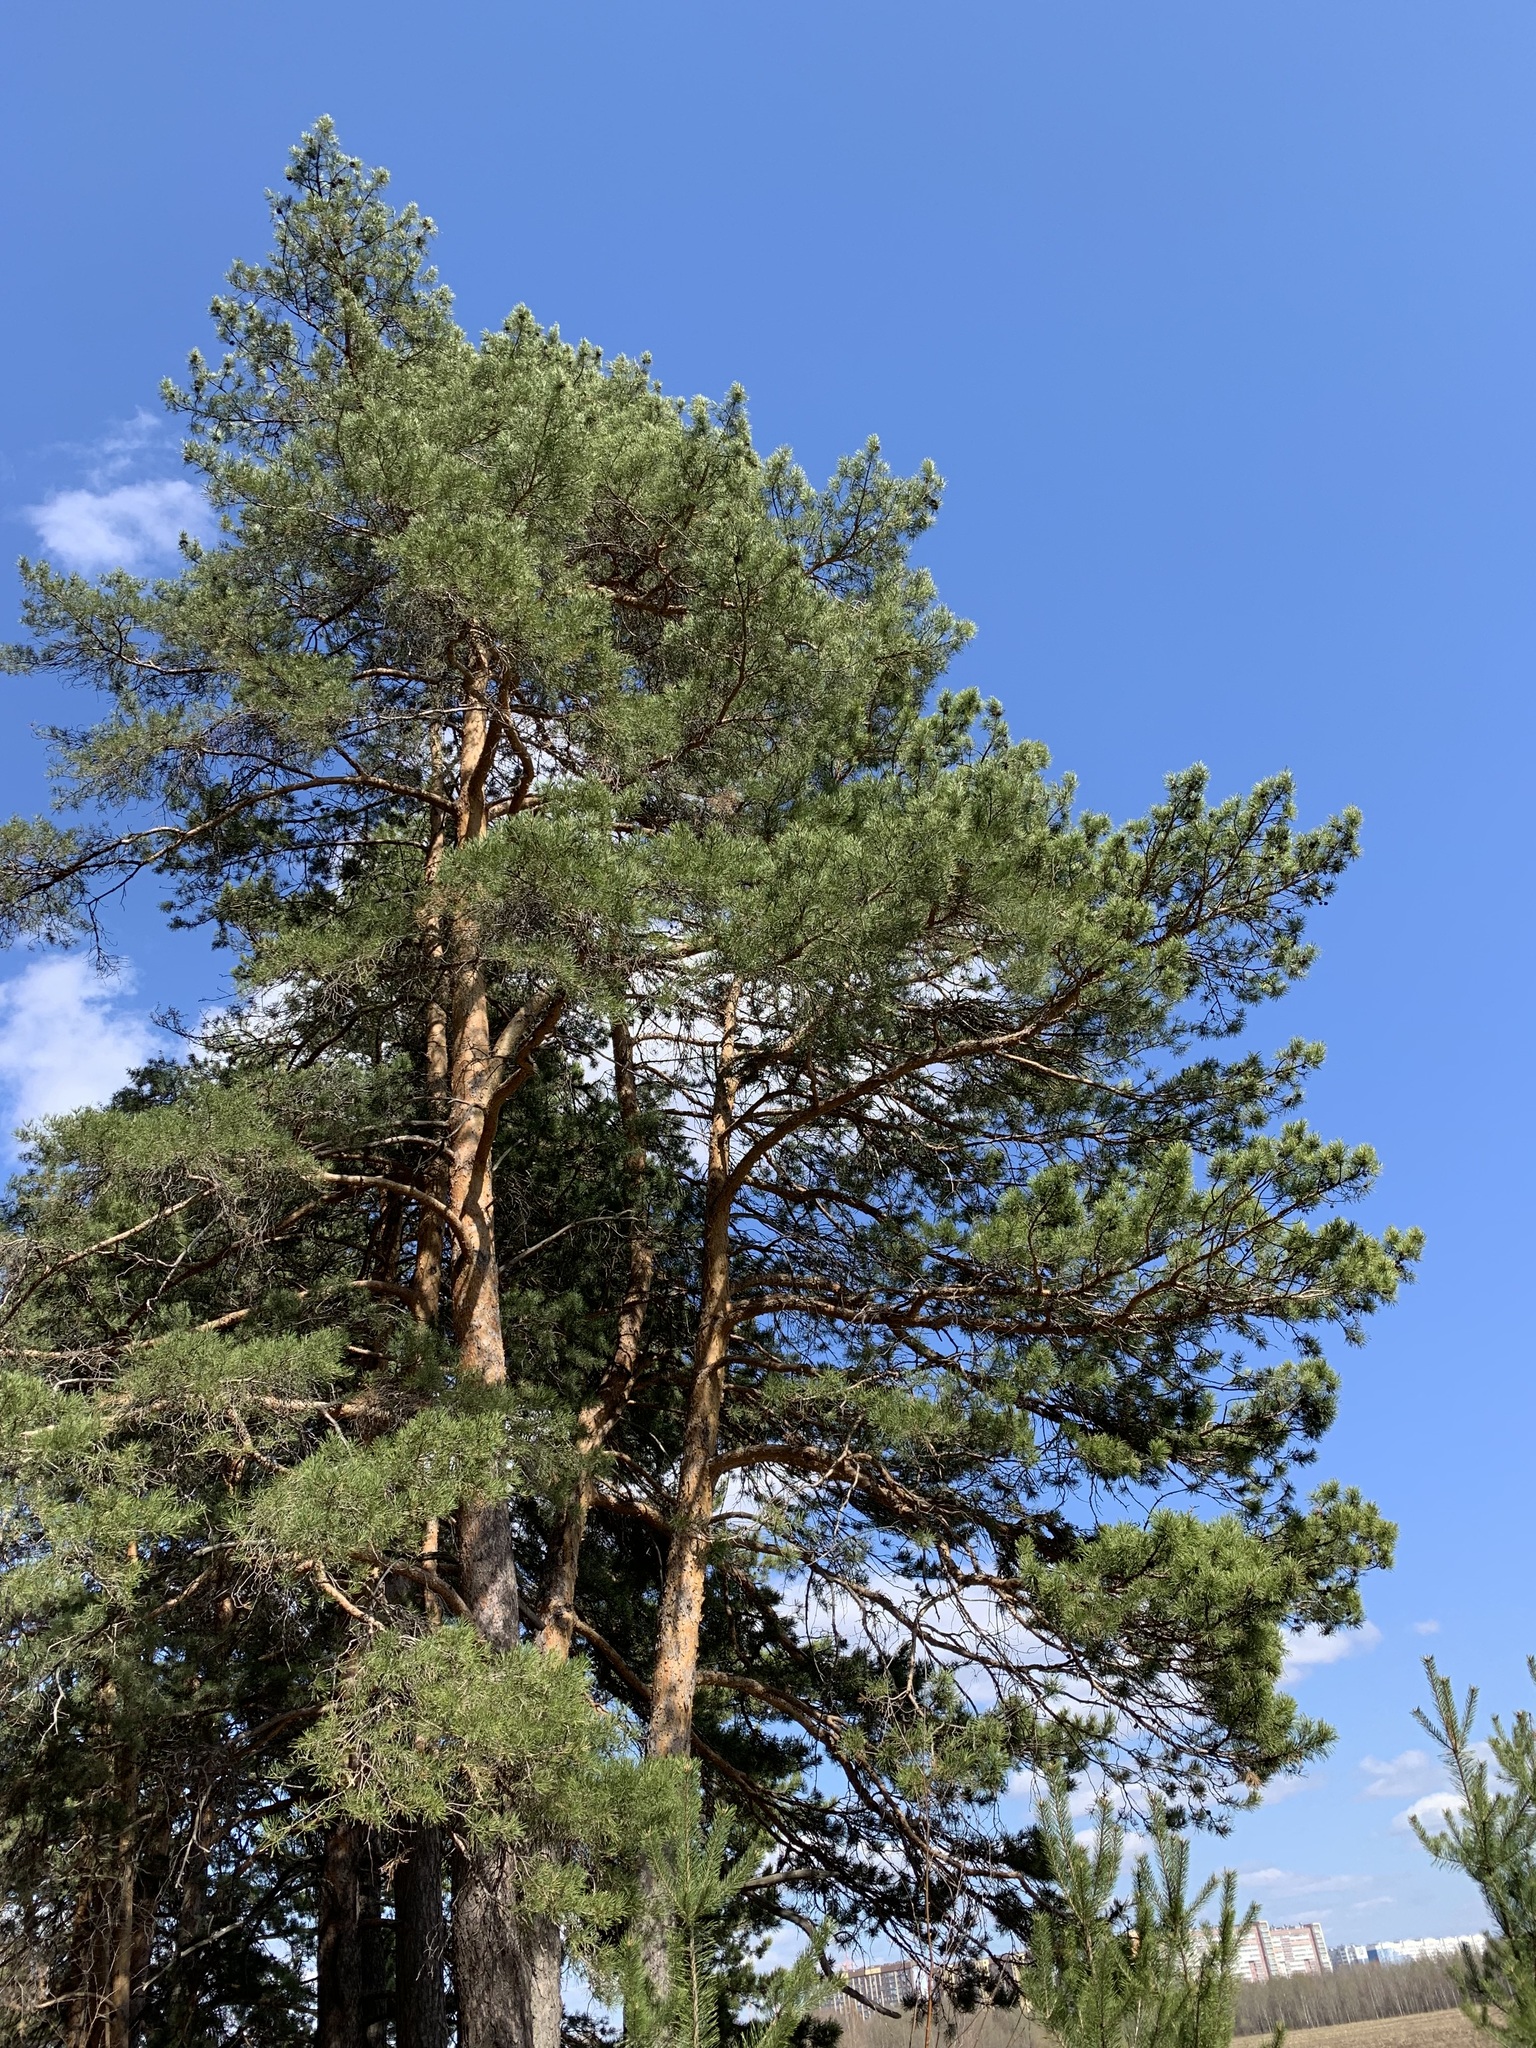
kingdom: Plantae
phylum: Tracheophyta
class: Pinopsida
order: Pinales
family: Pinaceae
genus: Pinus
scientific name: Pinus sylvestris
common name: Scots pine
